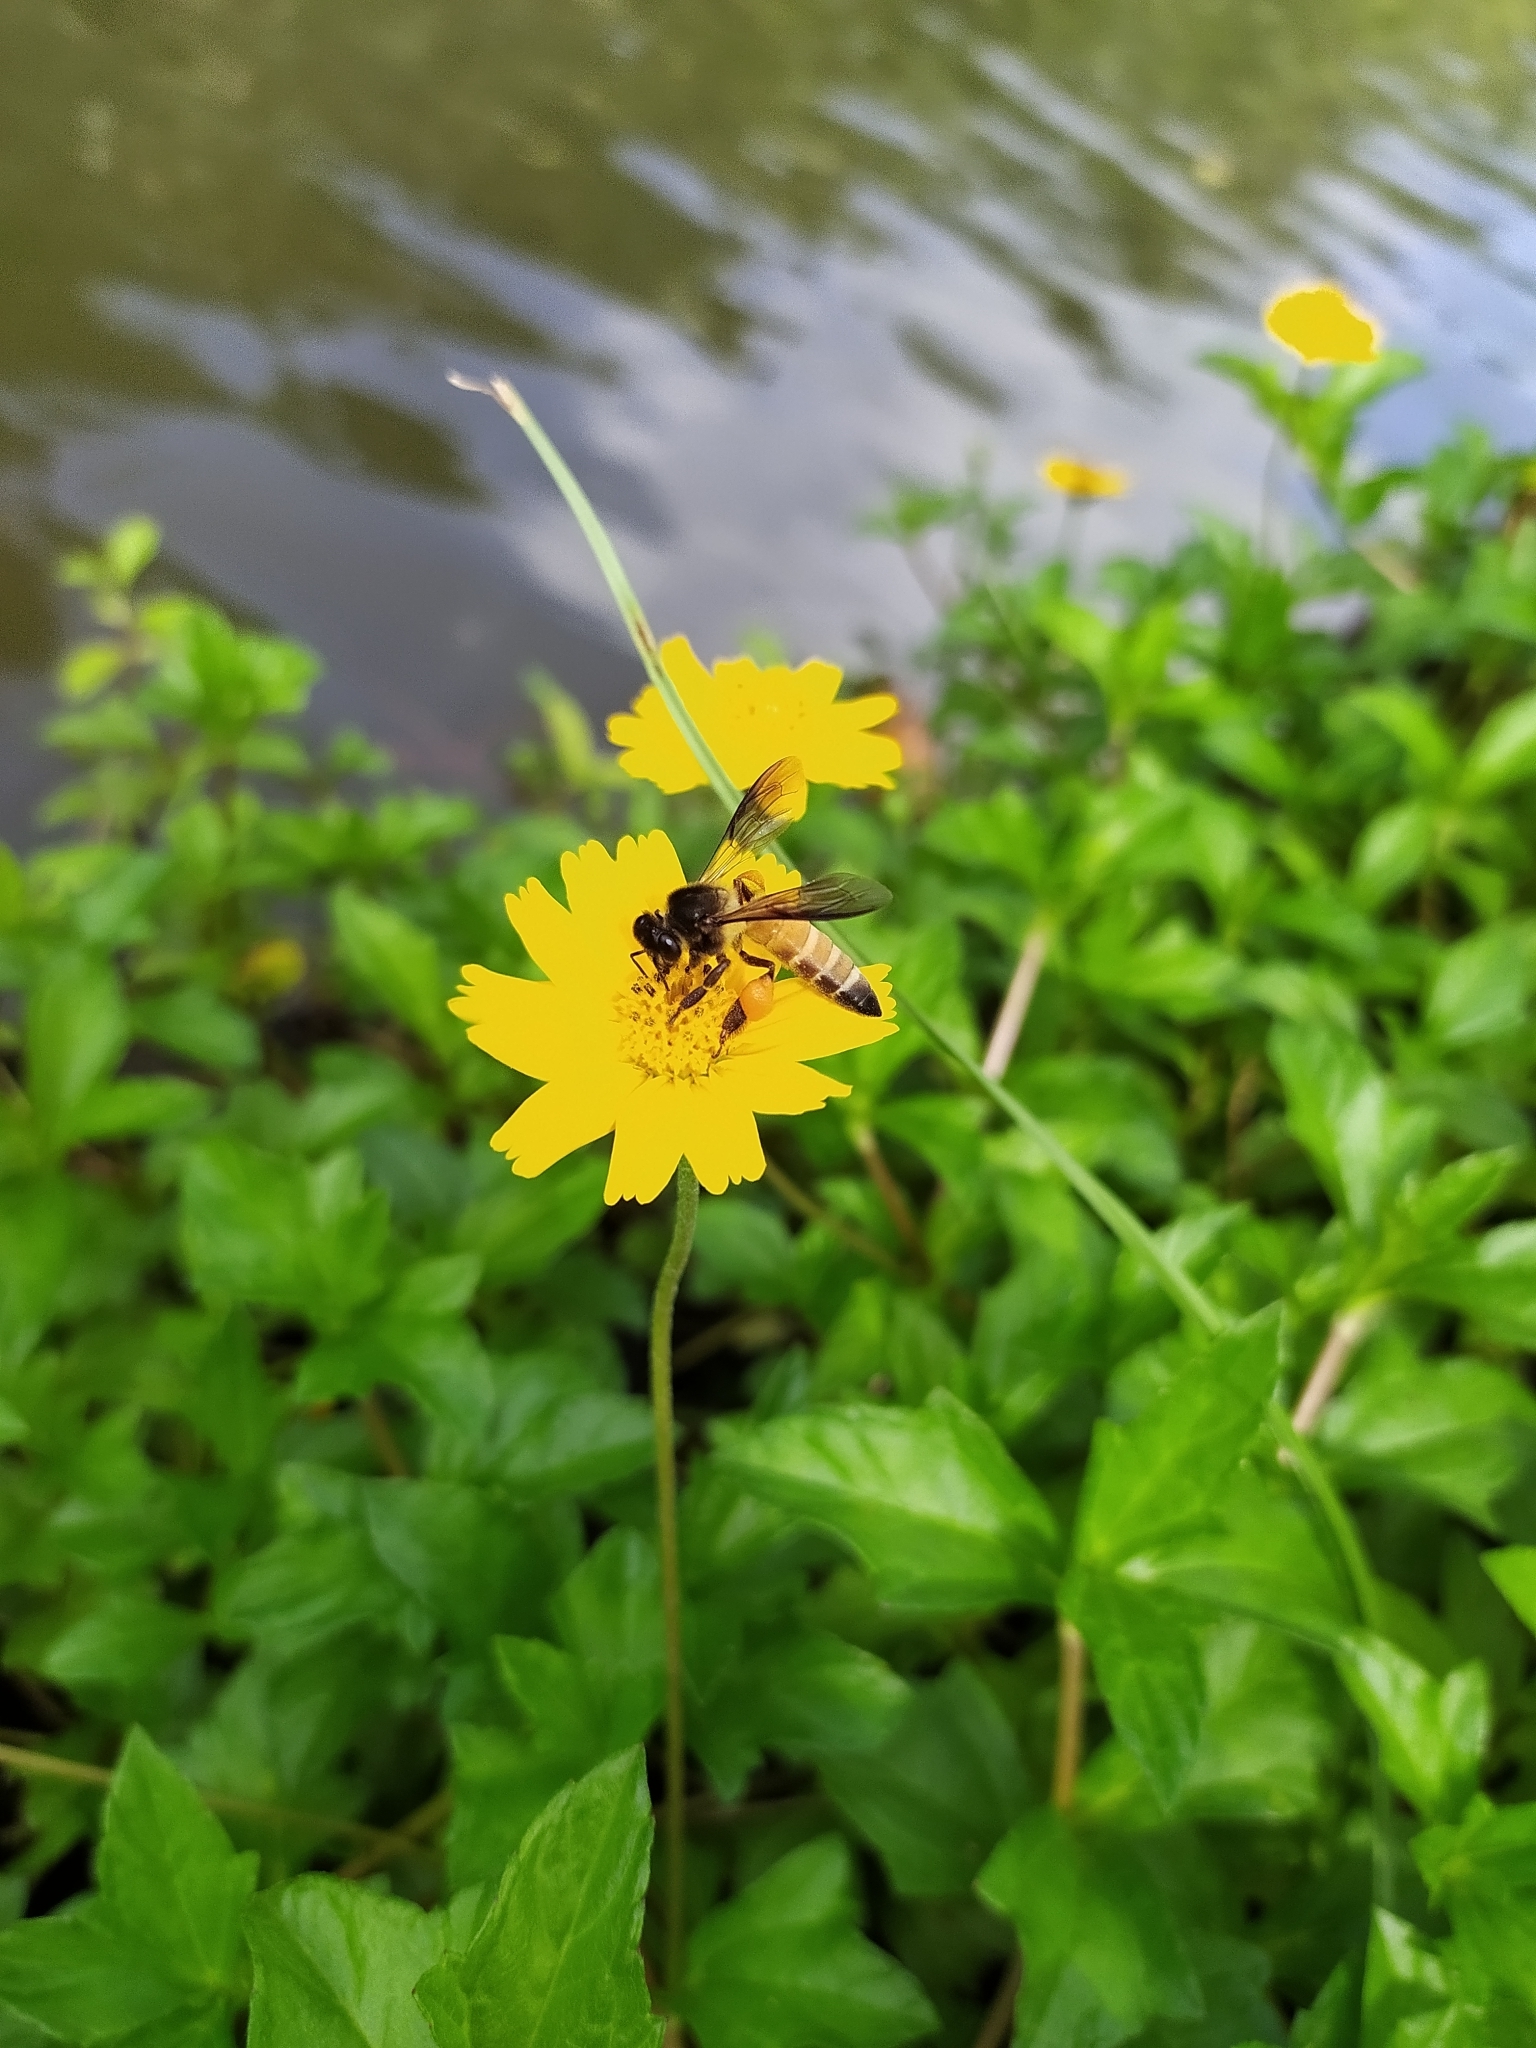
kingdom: Animalia
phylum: Arthropoda
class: Insecta
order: Hymenoptera
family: Apidae
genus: Apis
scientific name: Apis dorsata
